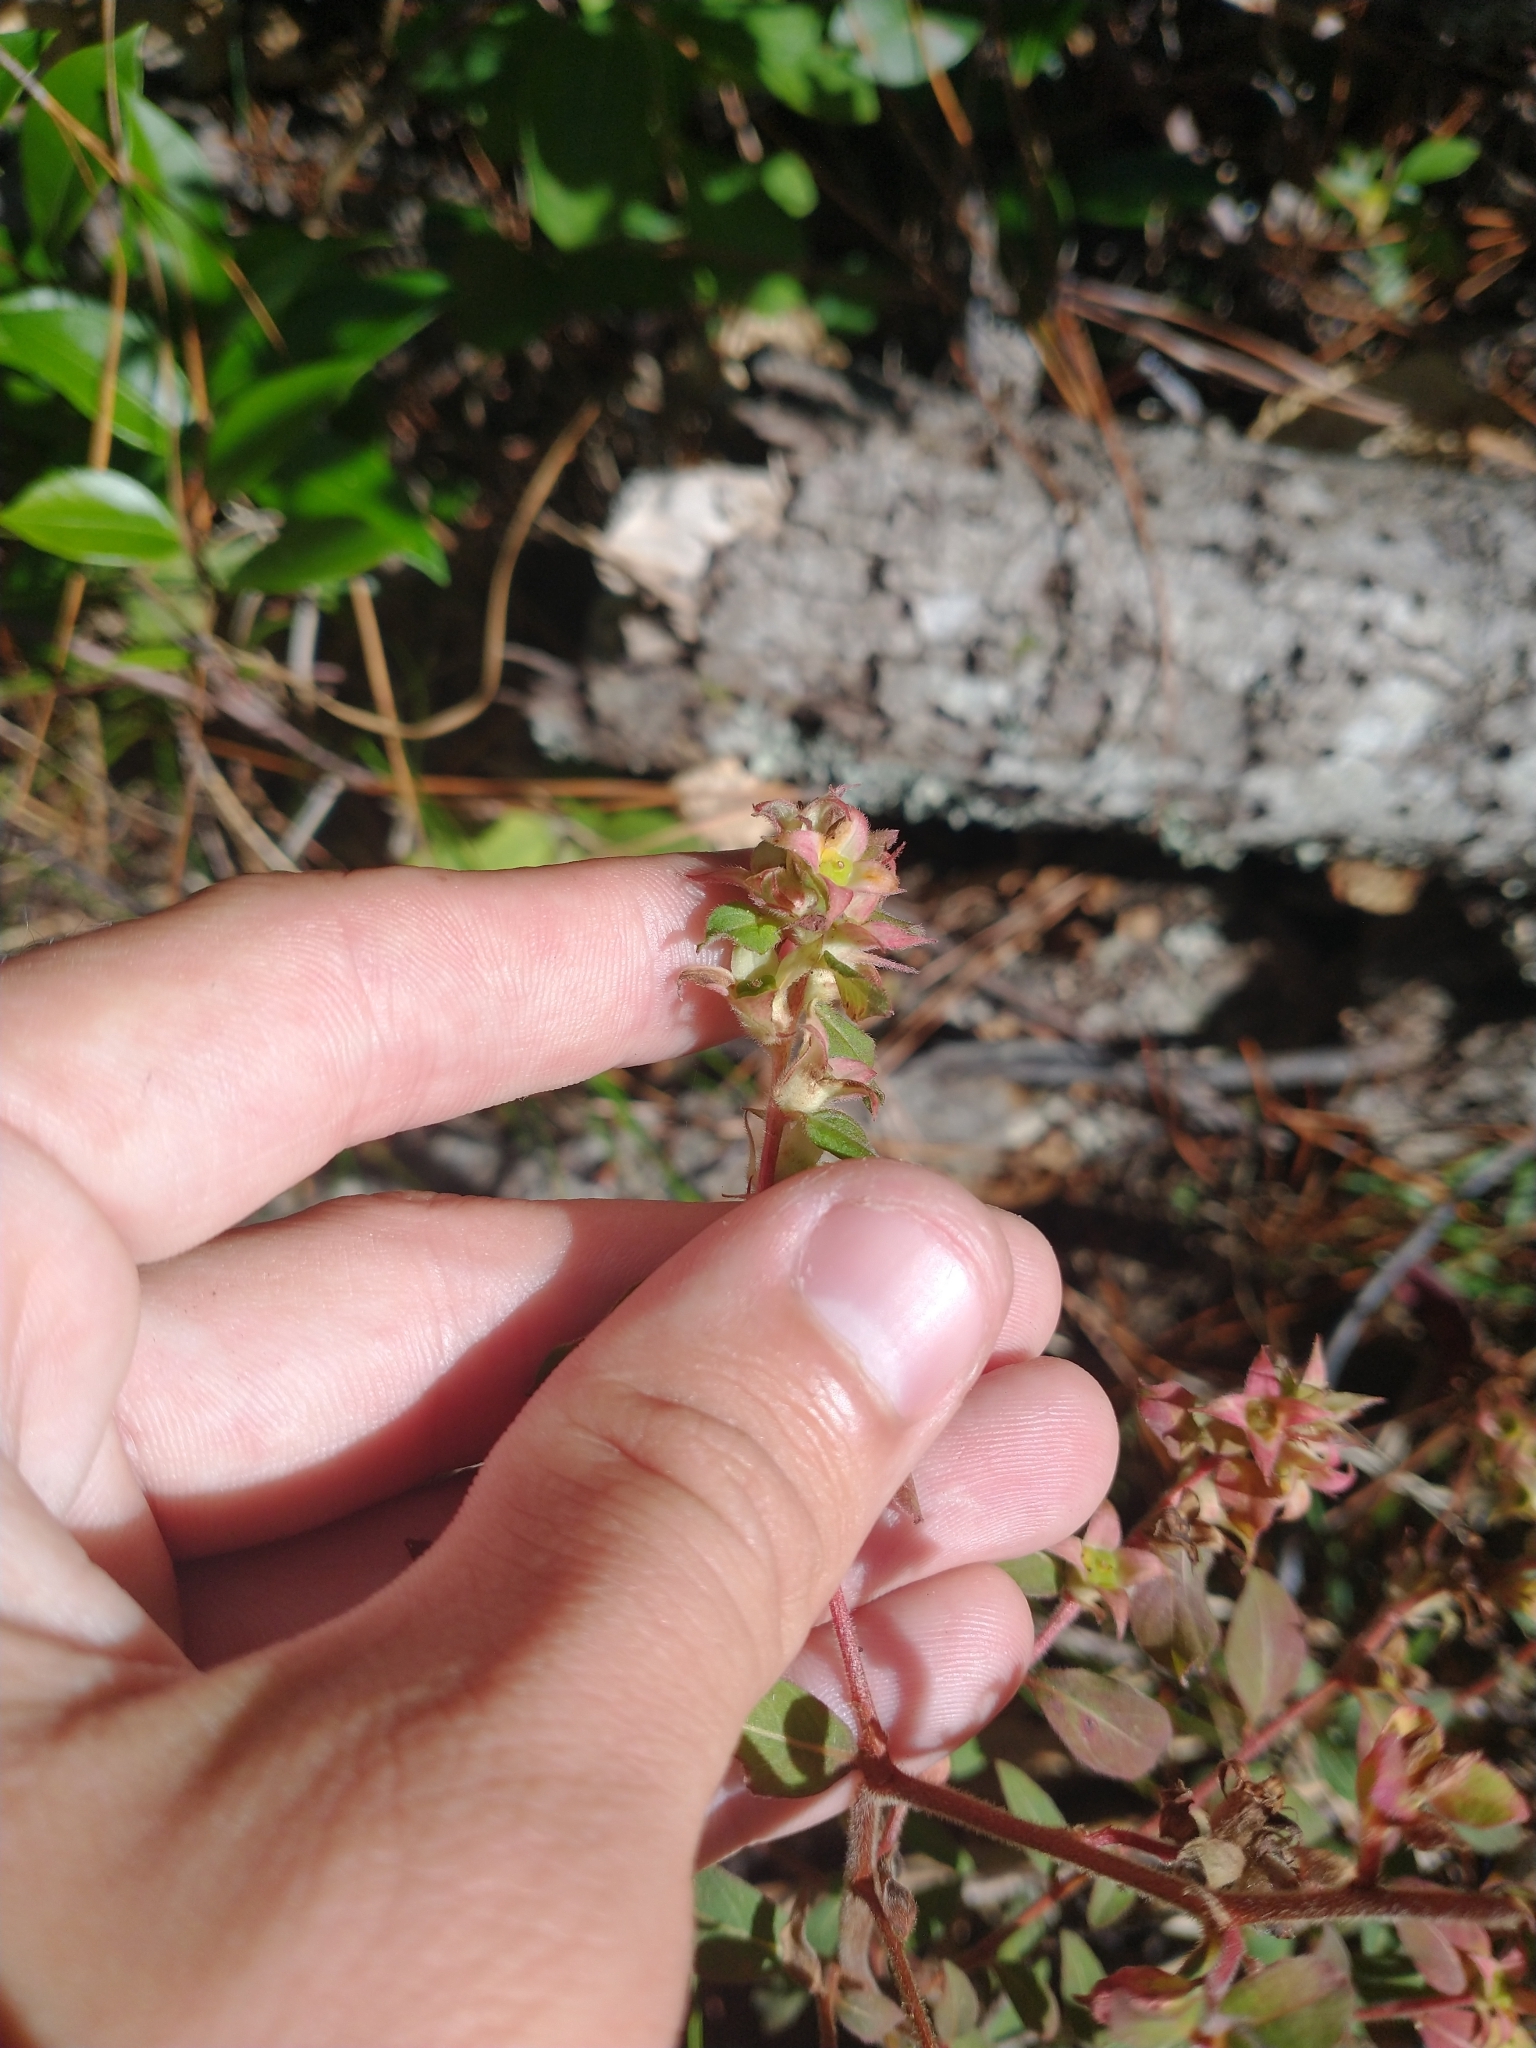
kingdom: Plantae
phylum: Tracheophyta
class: Magnoliopsida
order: Myrtales
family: Onagraceae
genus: Ludwigia
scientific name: Ludwigia pilosa
